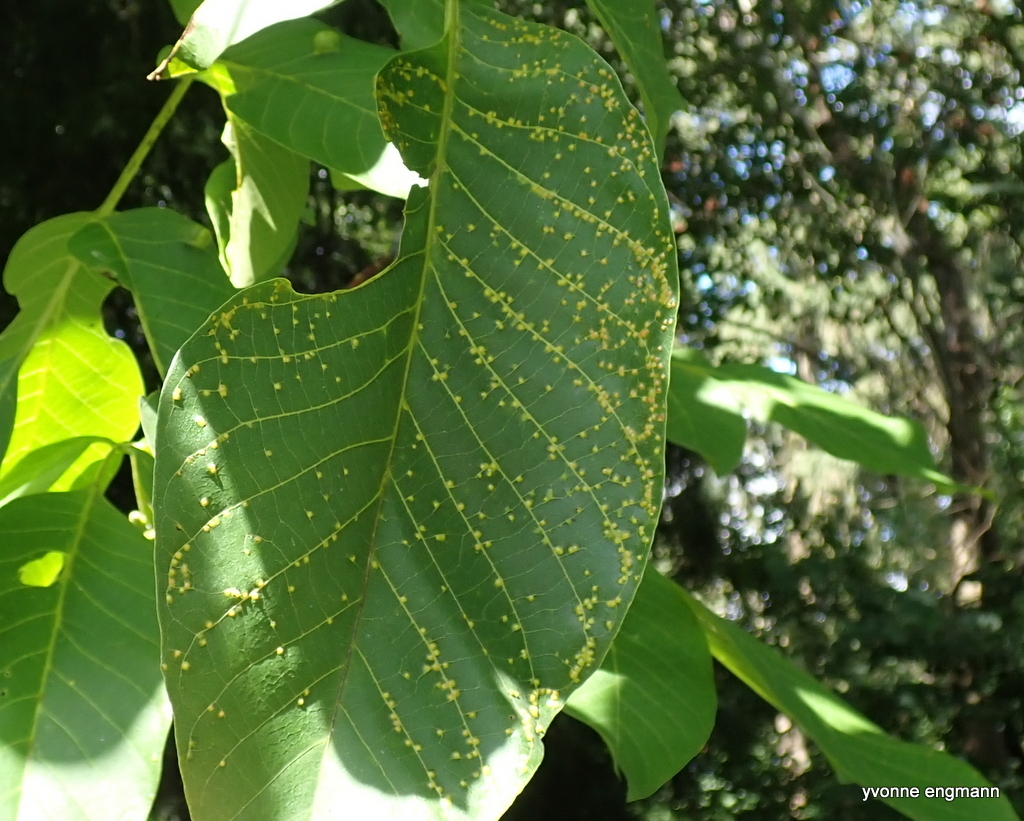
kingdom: Animalia
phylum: Arthropoda
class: Arachnida
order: Trombidiformes
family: Eriophyidae
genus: Aceria
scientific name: Aceria tristriata
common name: Persian walnut leaf blister mite
